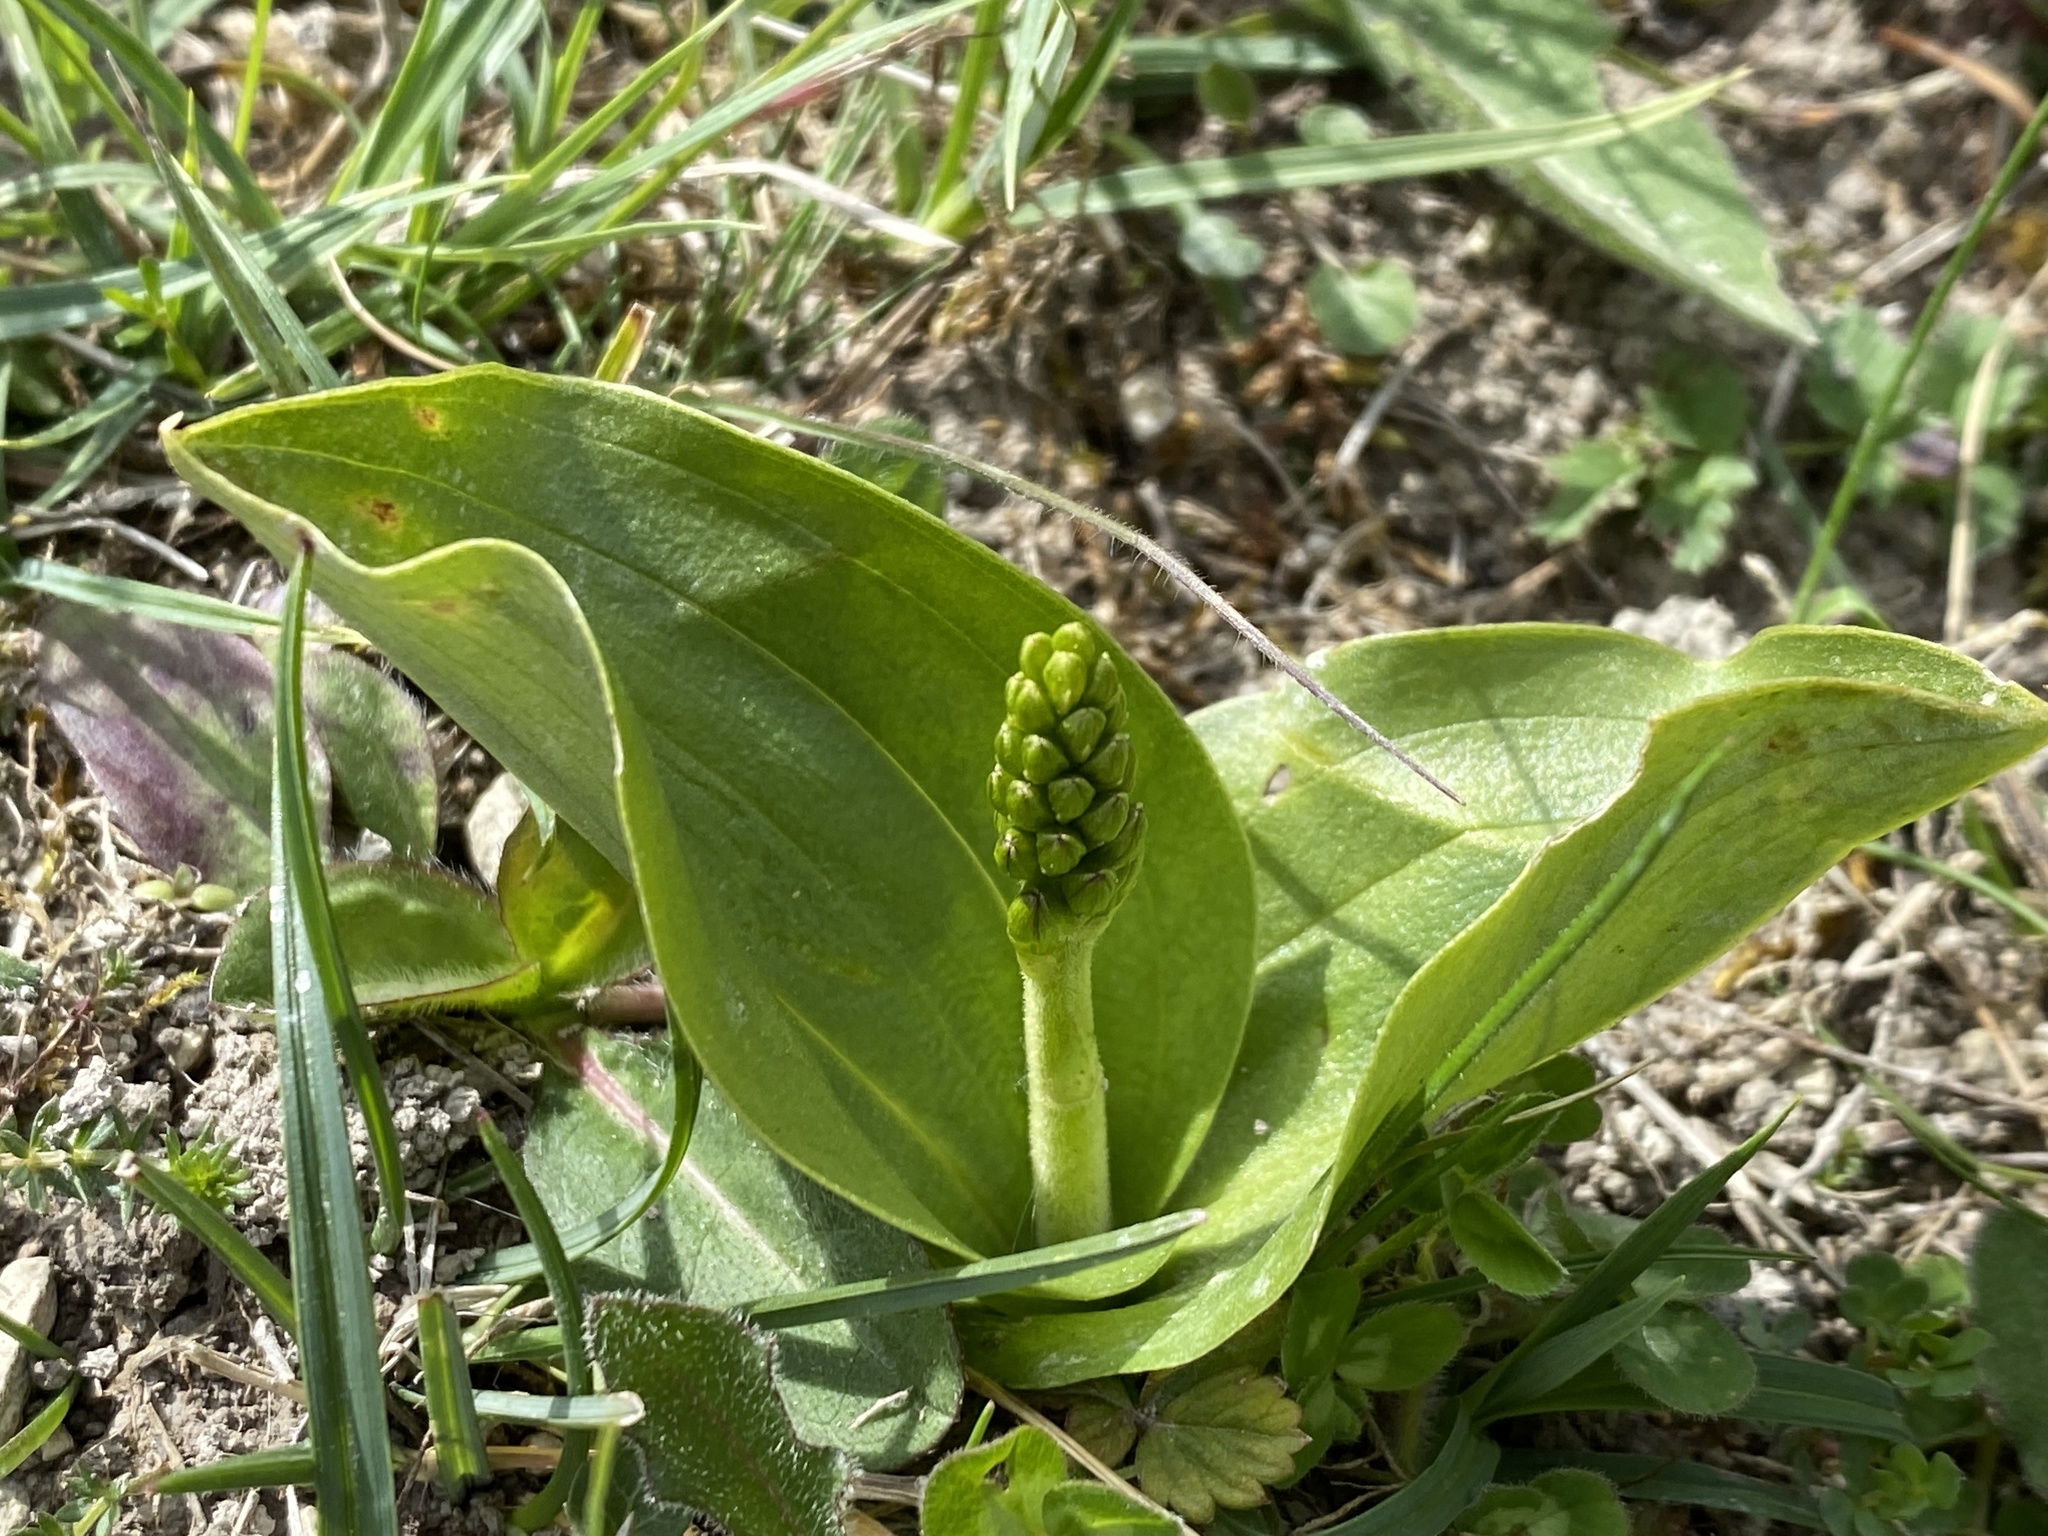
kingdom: Plantae
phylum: Tracheophyta
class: Liliopsida
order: Asparagales
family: Orchidaceae
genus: Neottia
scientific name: Neottia ovata
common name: Common twayblade
